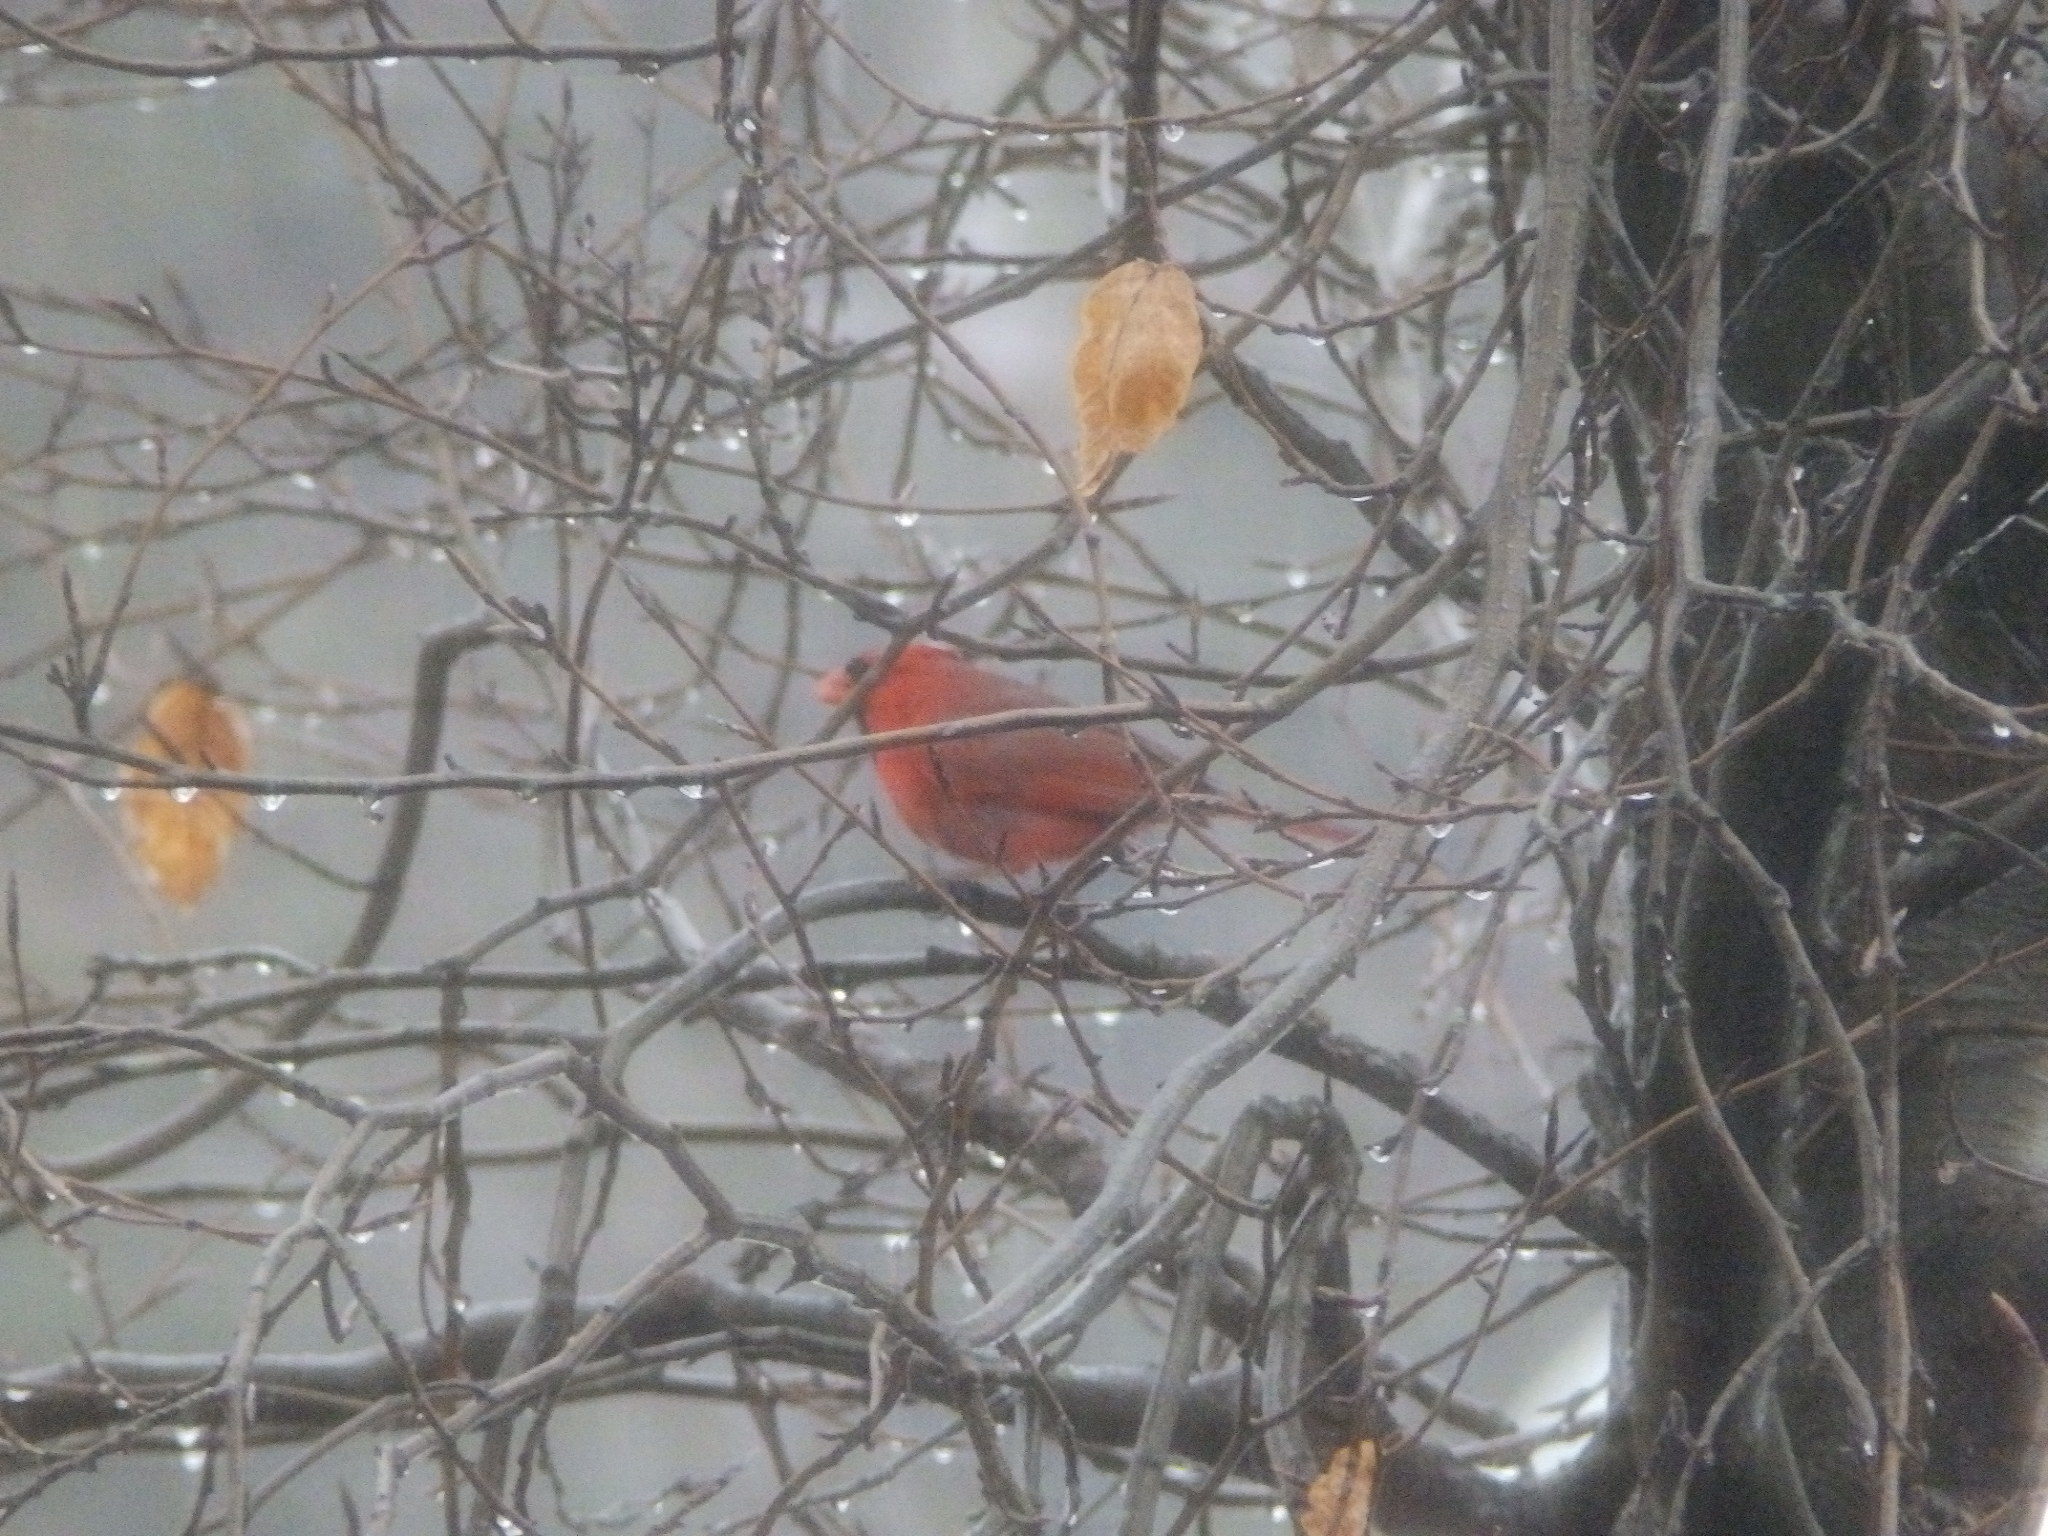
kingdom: Animalia
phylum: Chordata
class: Aves
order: Passeriformes
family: Cardinalidae
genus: Cardinalis
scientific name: Cardinalis cardinalis
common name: Northern cardinal
